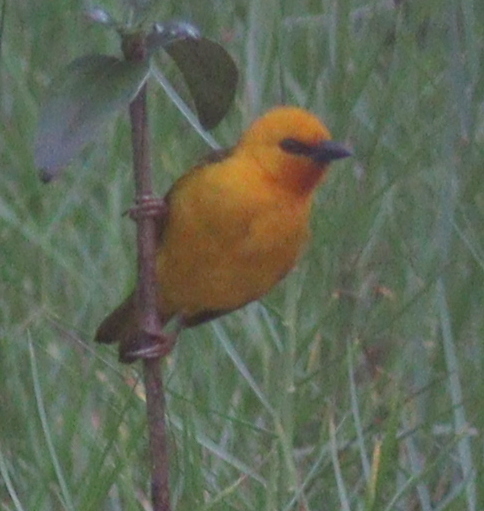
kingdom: Animalia
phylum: Chordata
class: Aves
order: Passeriformes
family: Ploceidae
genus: Ploceus
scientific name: Ploceus aurantius
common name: Orange weaver
